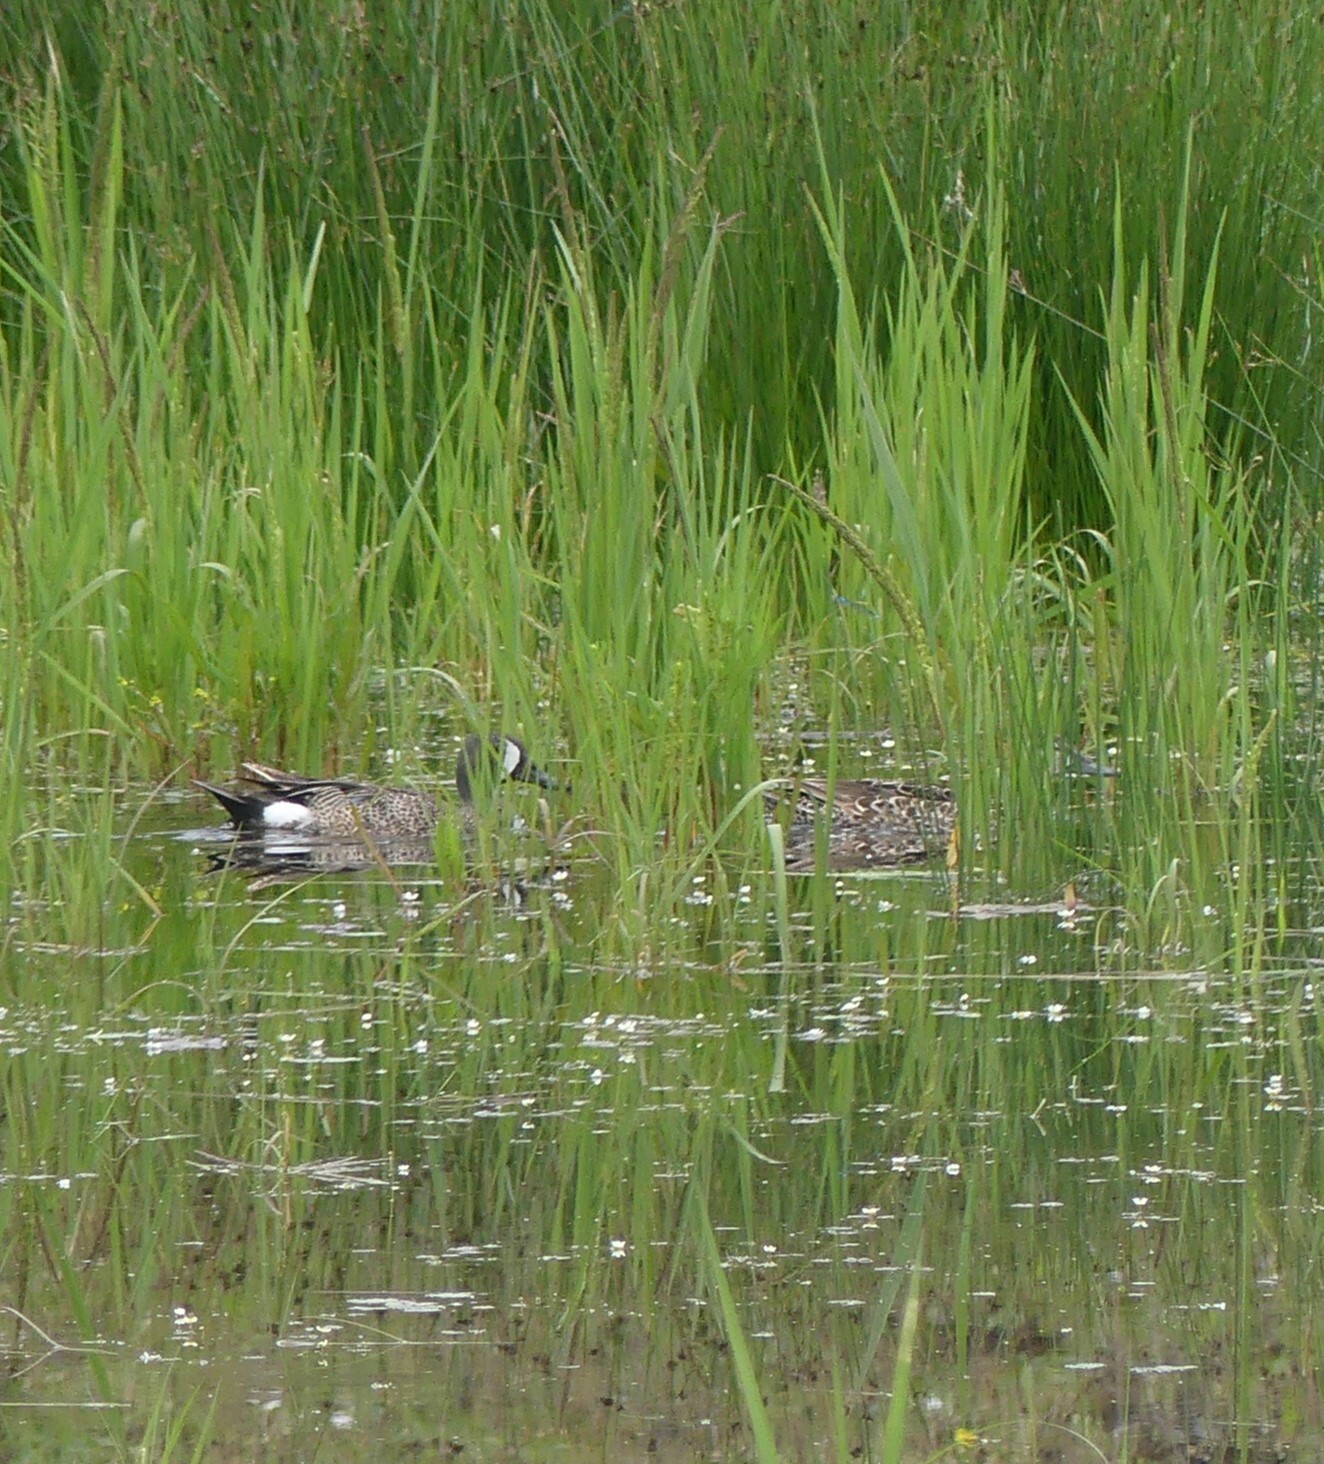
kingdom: Animalia
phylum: Chordata
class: Aves
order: Anseriformes
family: Anatidae
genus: Spatula
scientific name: Spatula discors
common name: Blue-winged teal
